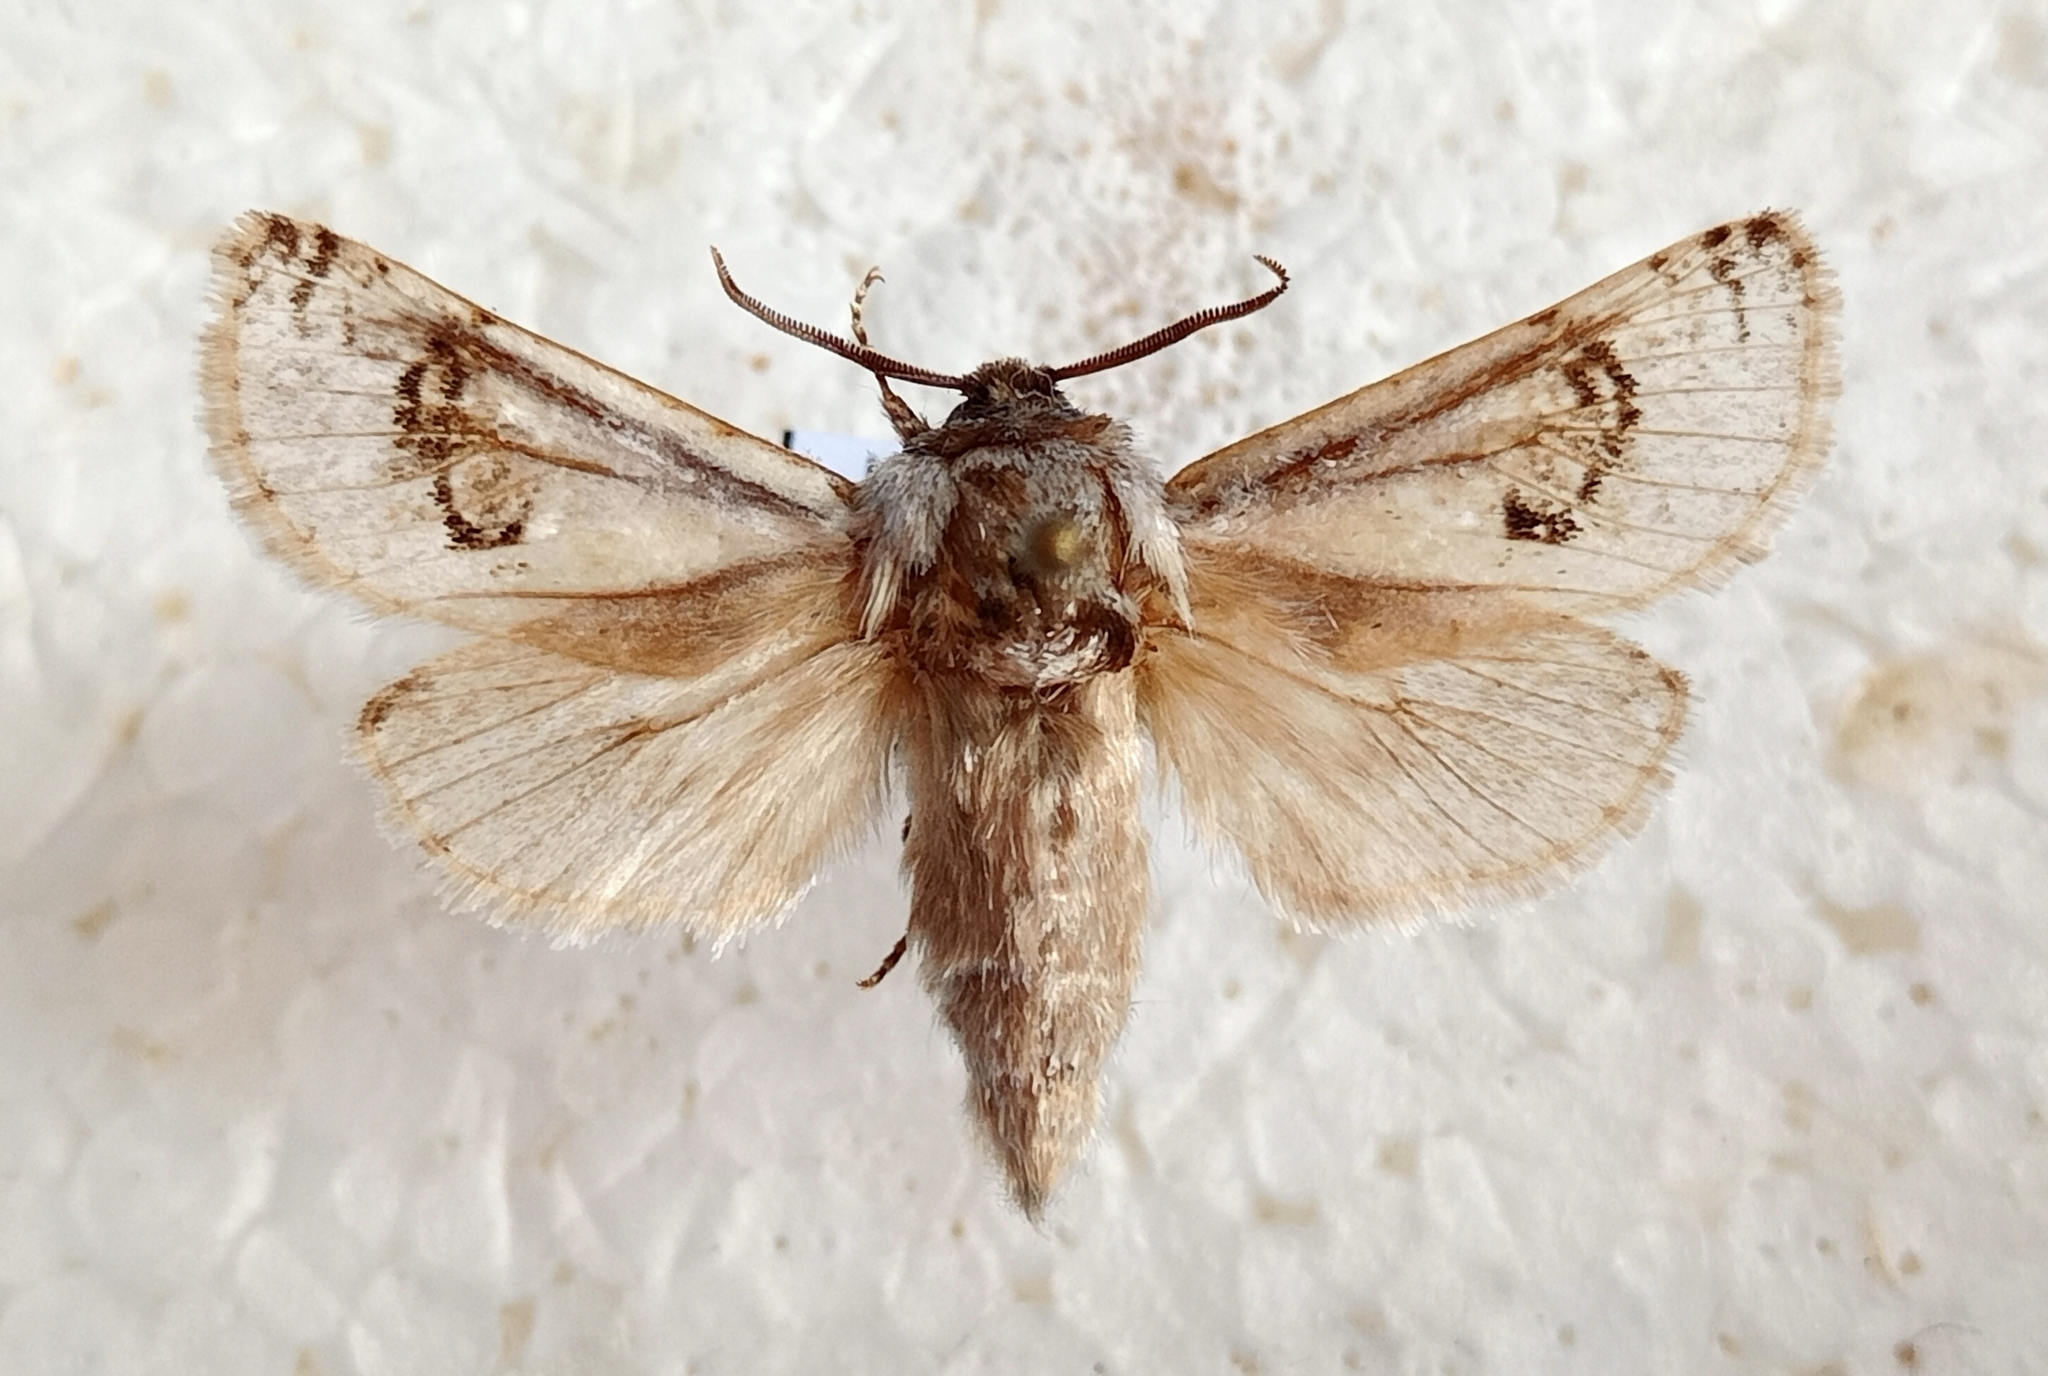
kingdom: Animalia
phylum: Arthropoda
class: Insecta
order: Lepidoptera
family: Cossidae
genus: Parahypopta
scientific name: Parahypopta caestrum
